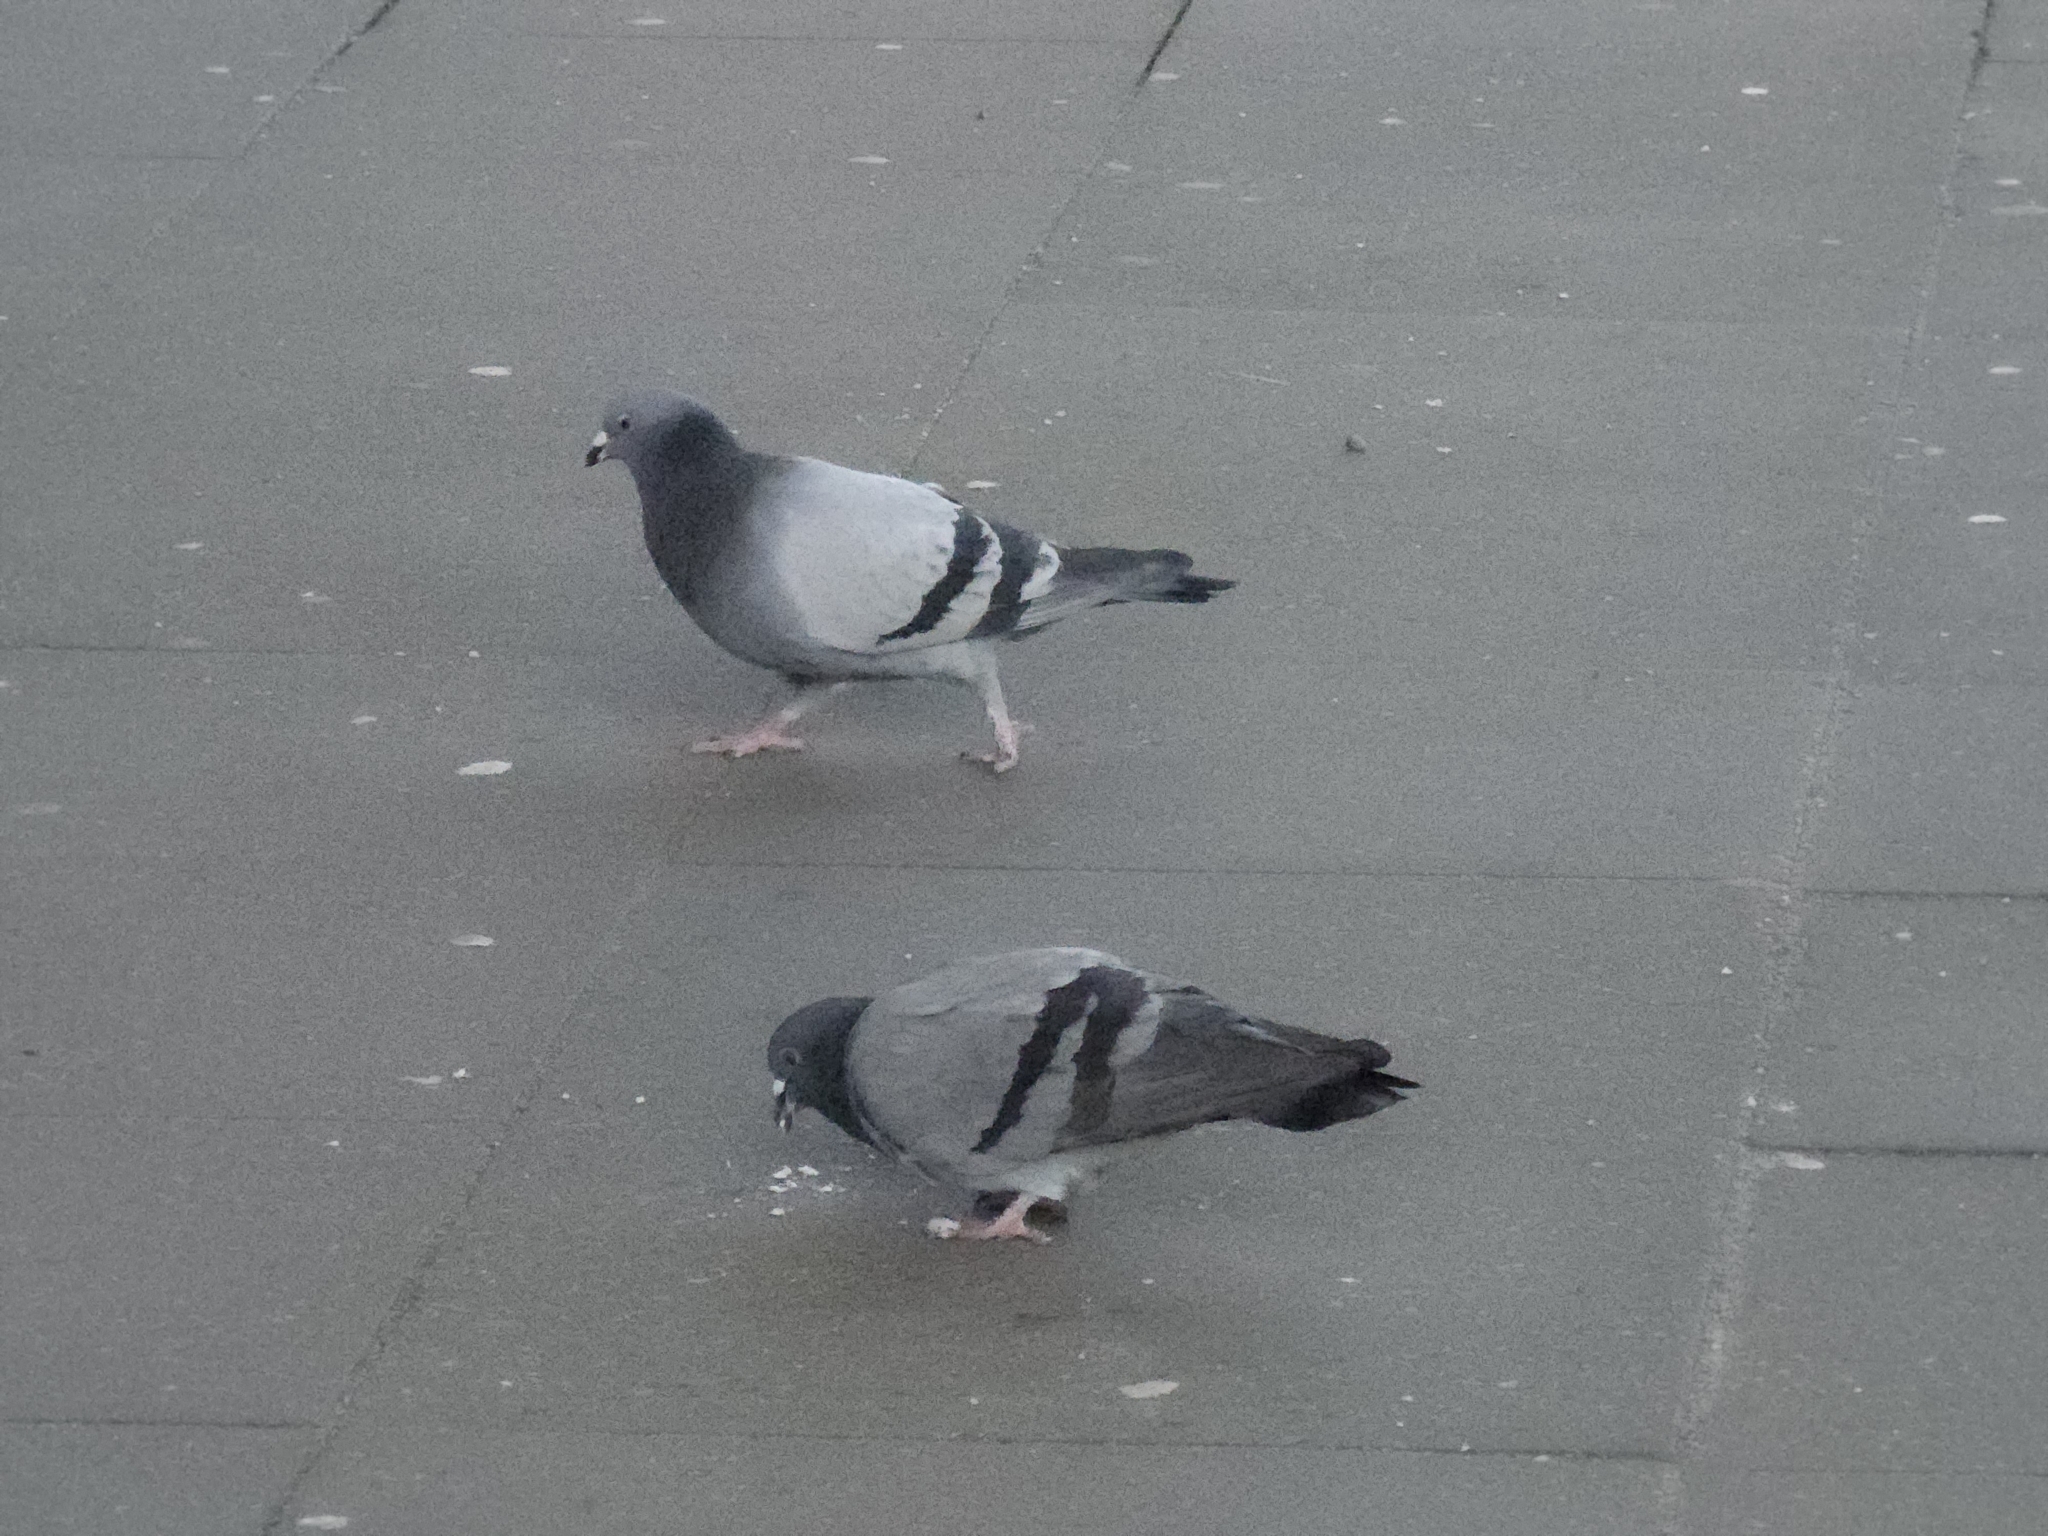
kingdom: Animalia
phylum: Chordata
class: Aves
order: Columbiformes
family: Columbidae
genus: Columba
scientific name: Columba livia
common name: Rock pigeon
